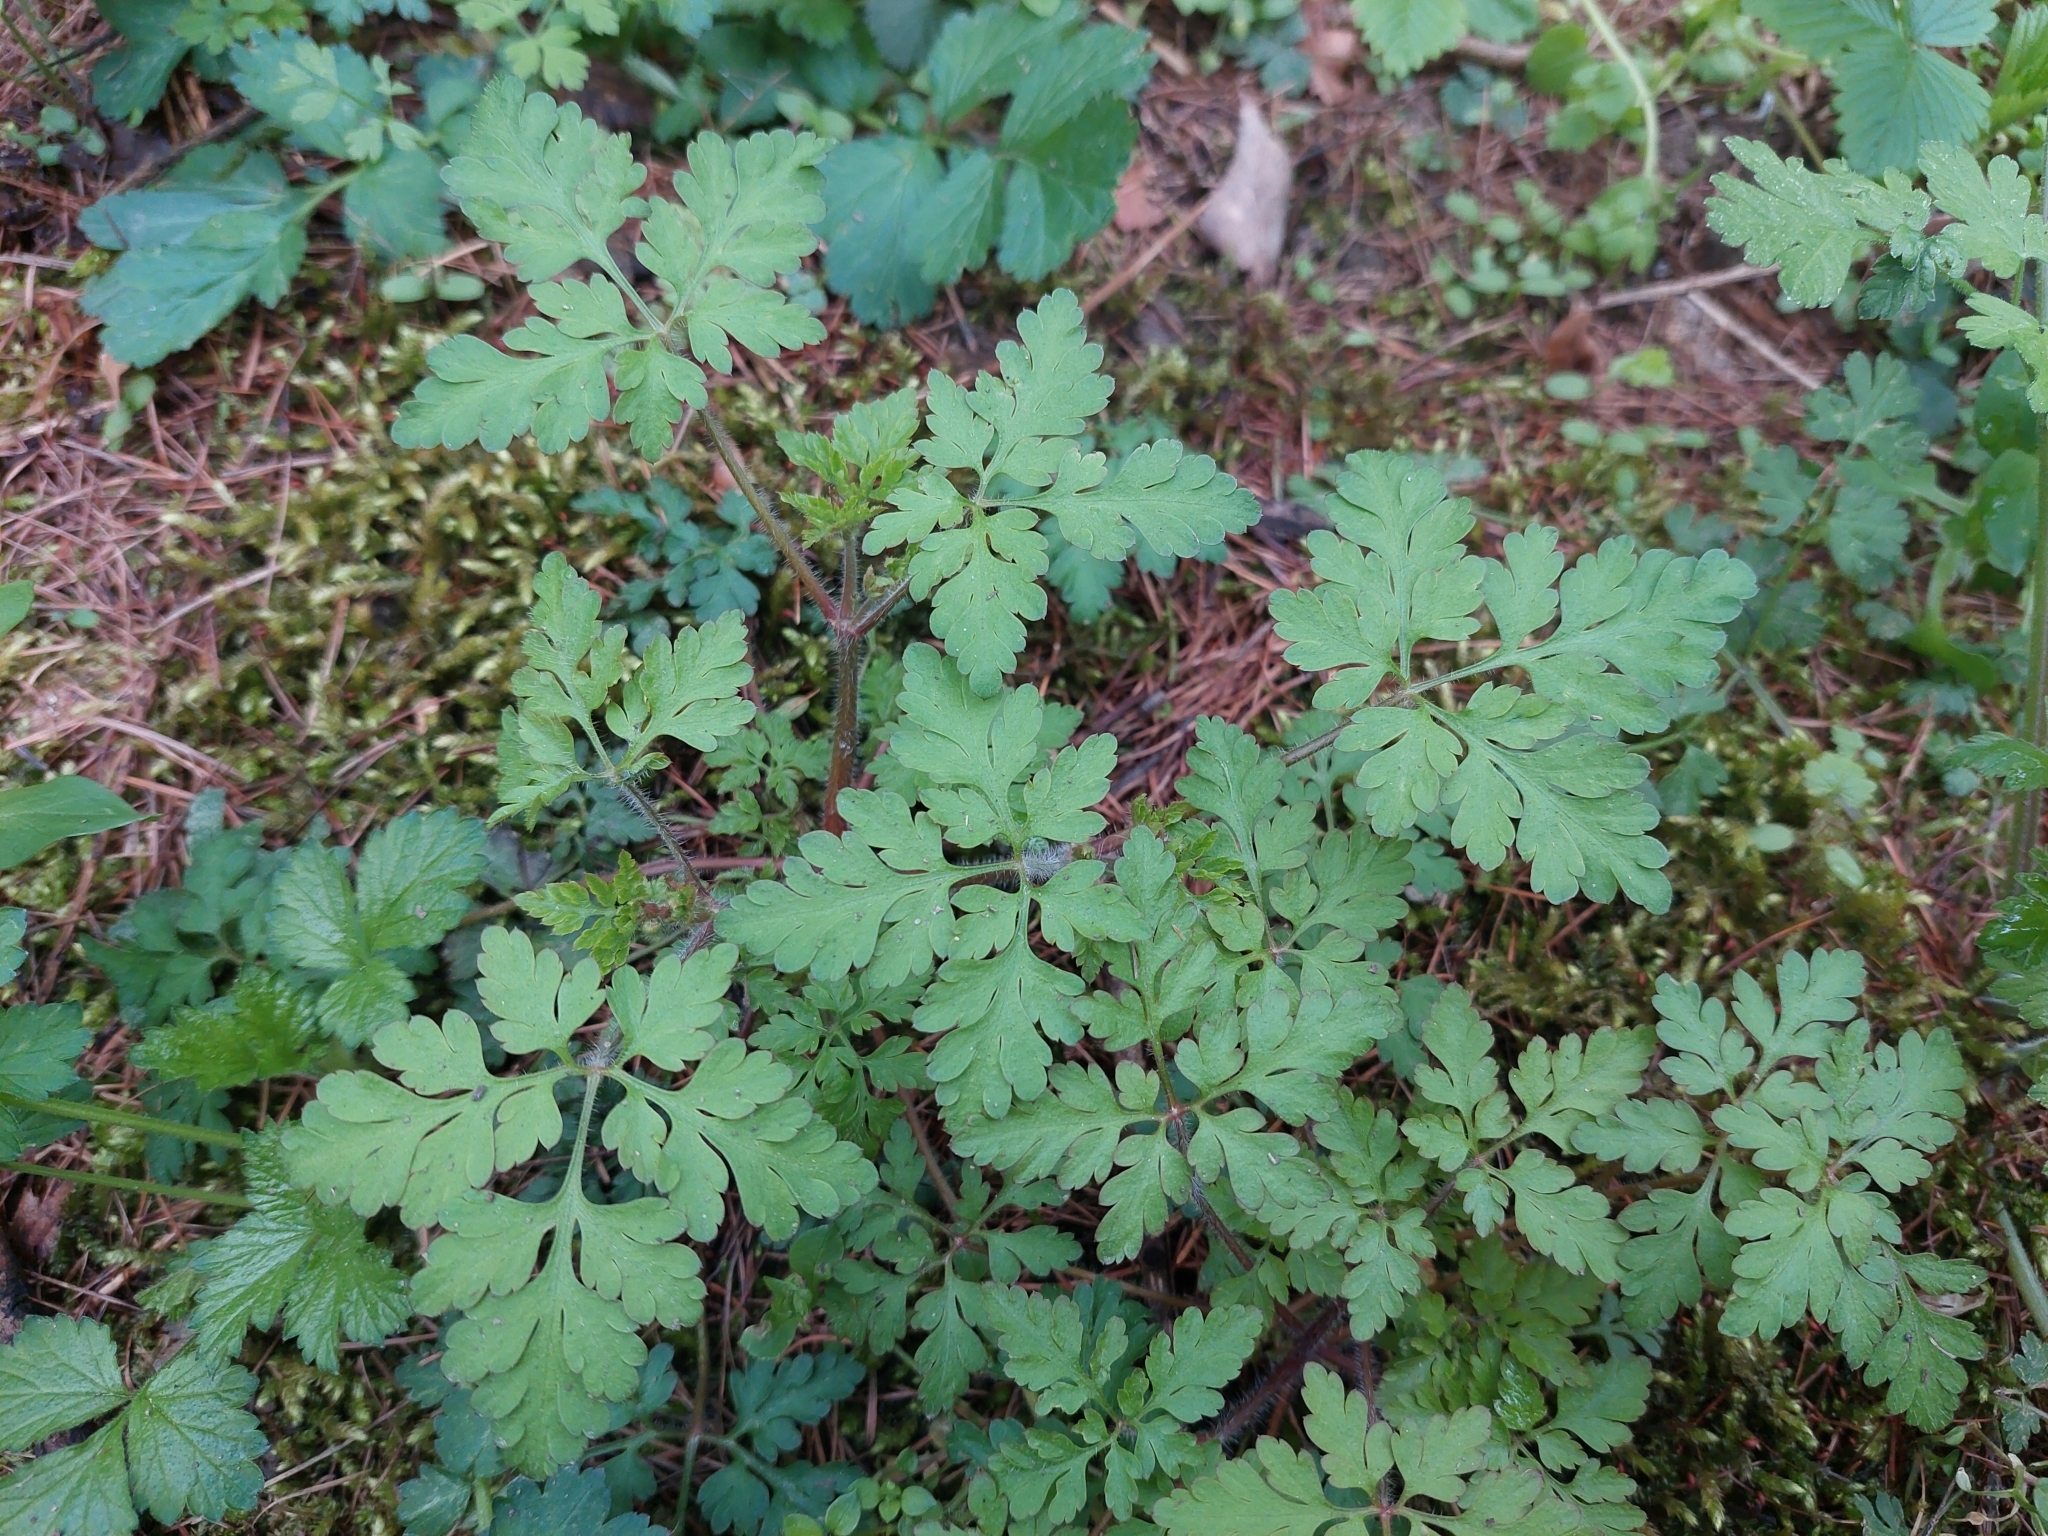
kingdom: Plantae
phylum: Tracheophyta
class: Magnoliopsida
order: Geraniales
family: Geraniaceae
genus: Geranium
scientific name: Geranium robertianum
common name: Herb-robert
